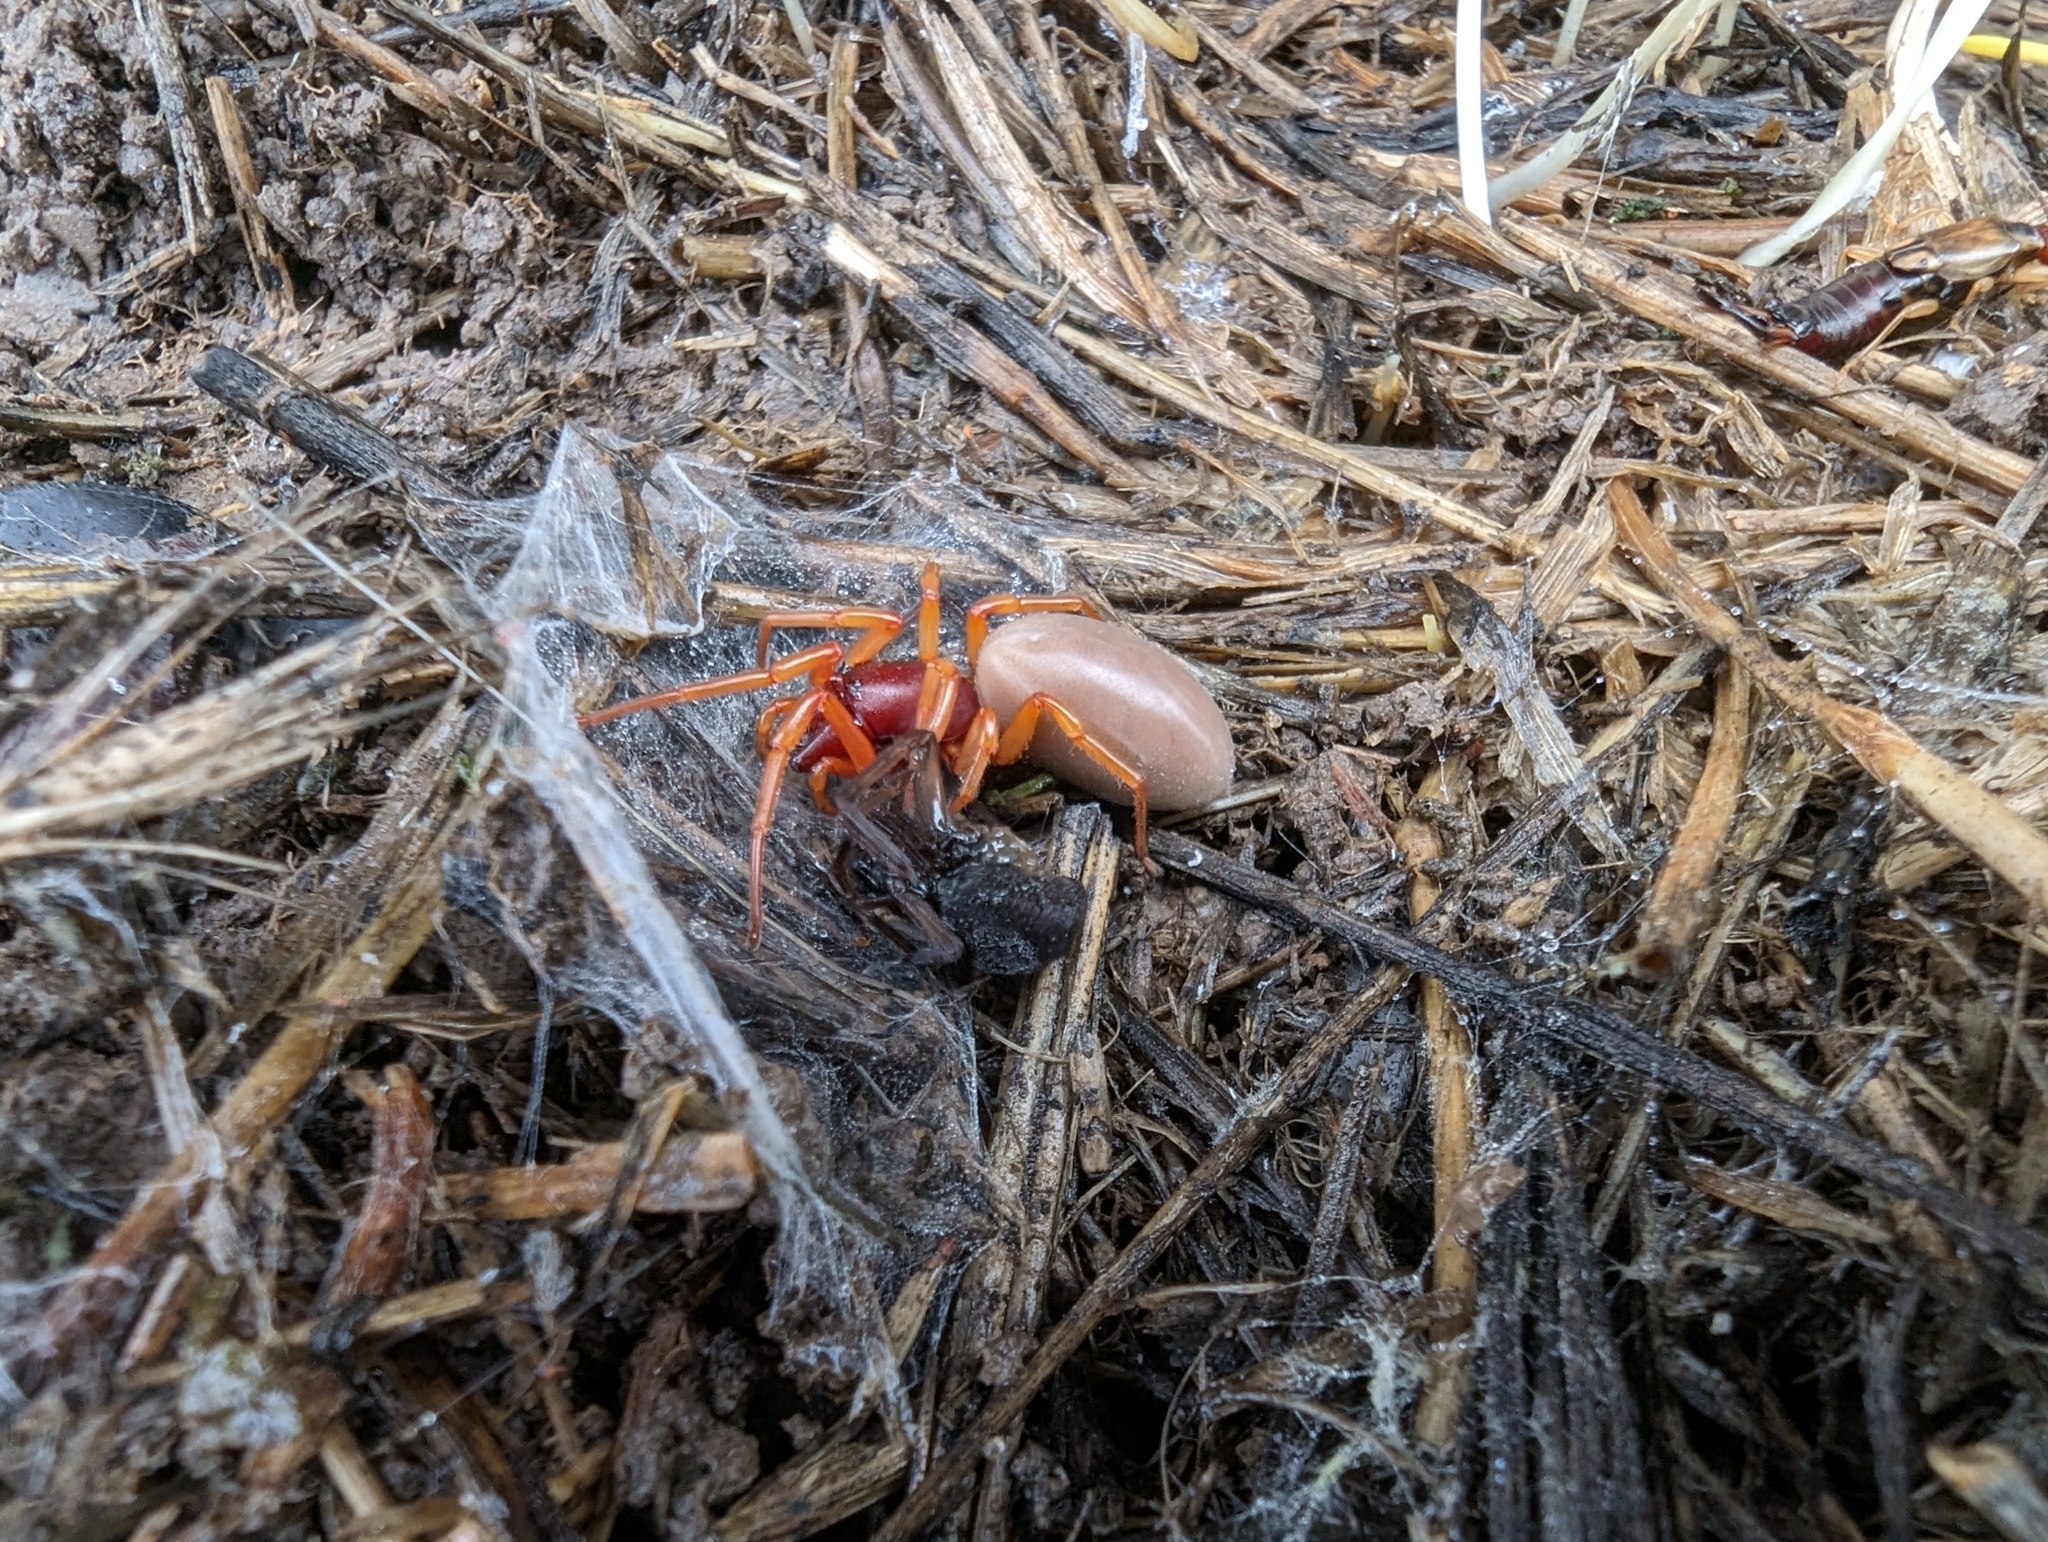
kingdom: Animalia
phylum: Arthropoda
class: Arachnida
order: Araneae
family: Dysderidae
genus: Dysdera
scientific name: Dysdera crocata
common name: Woodlouse spider
